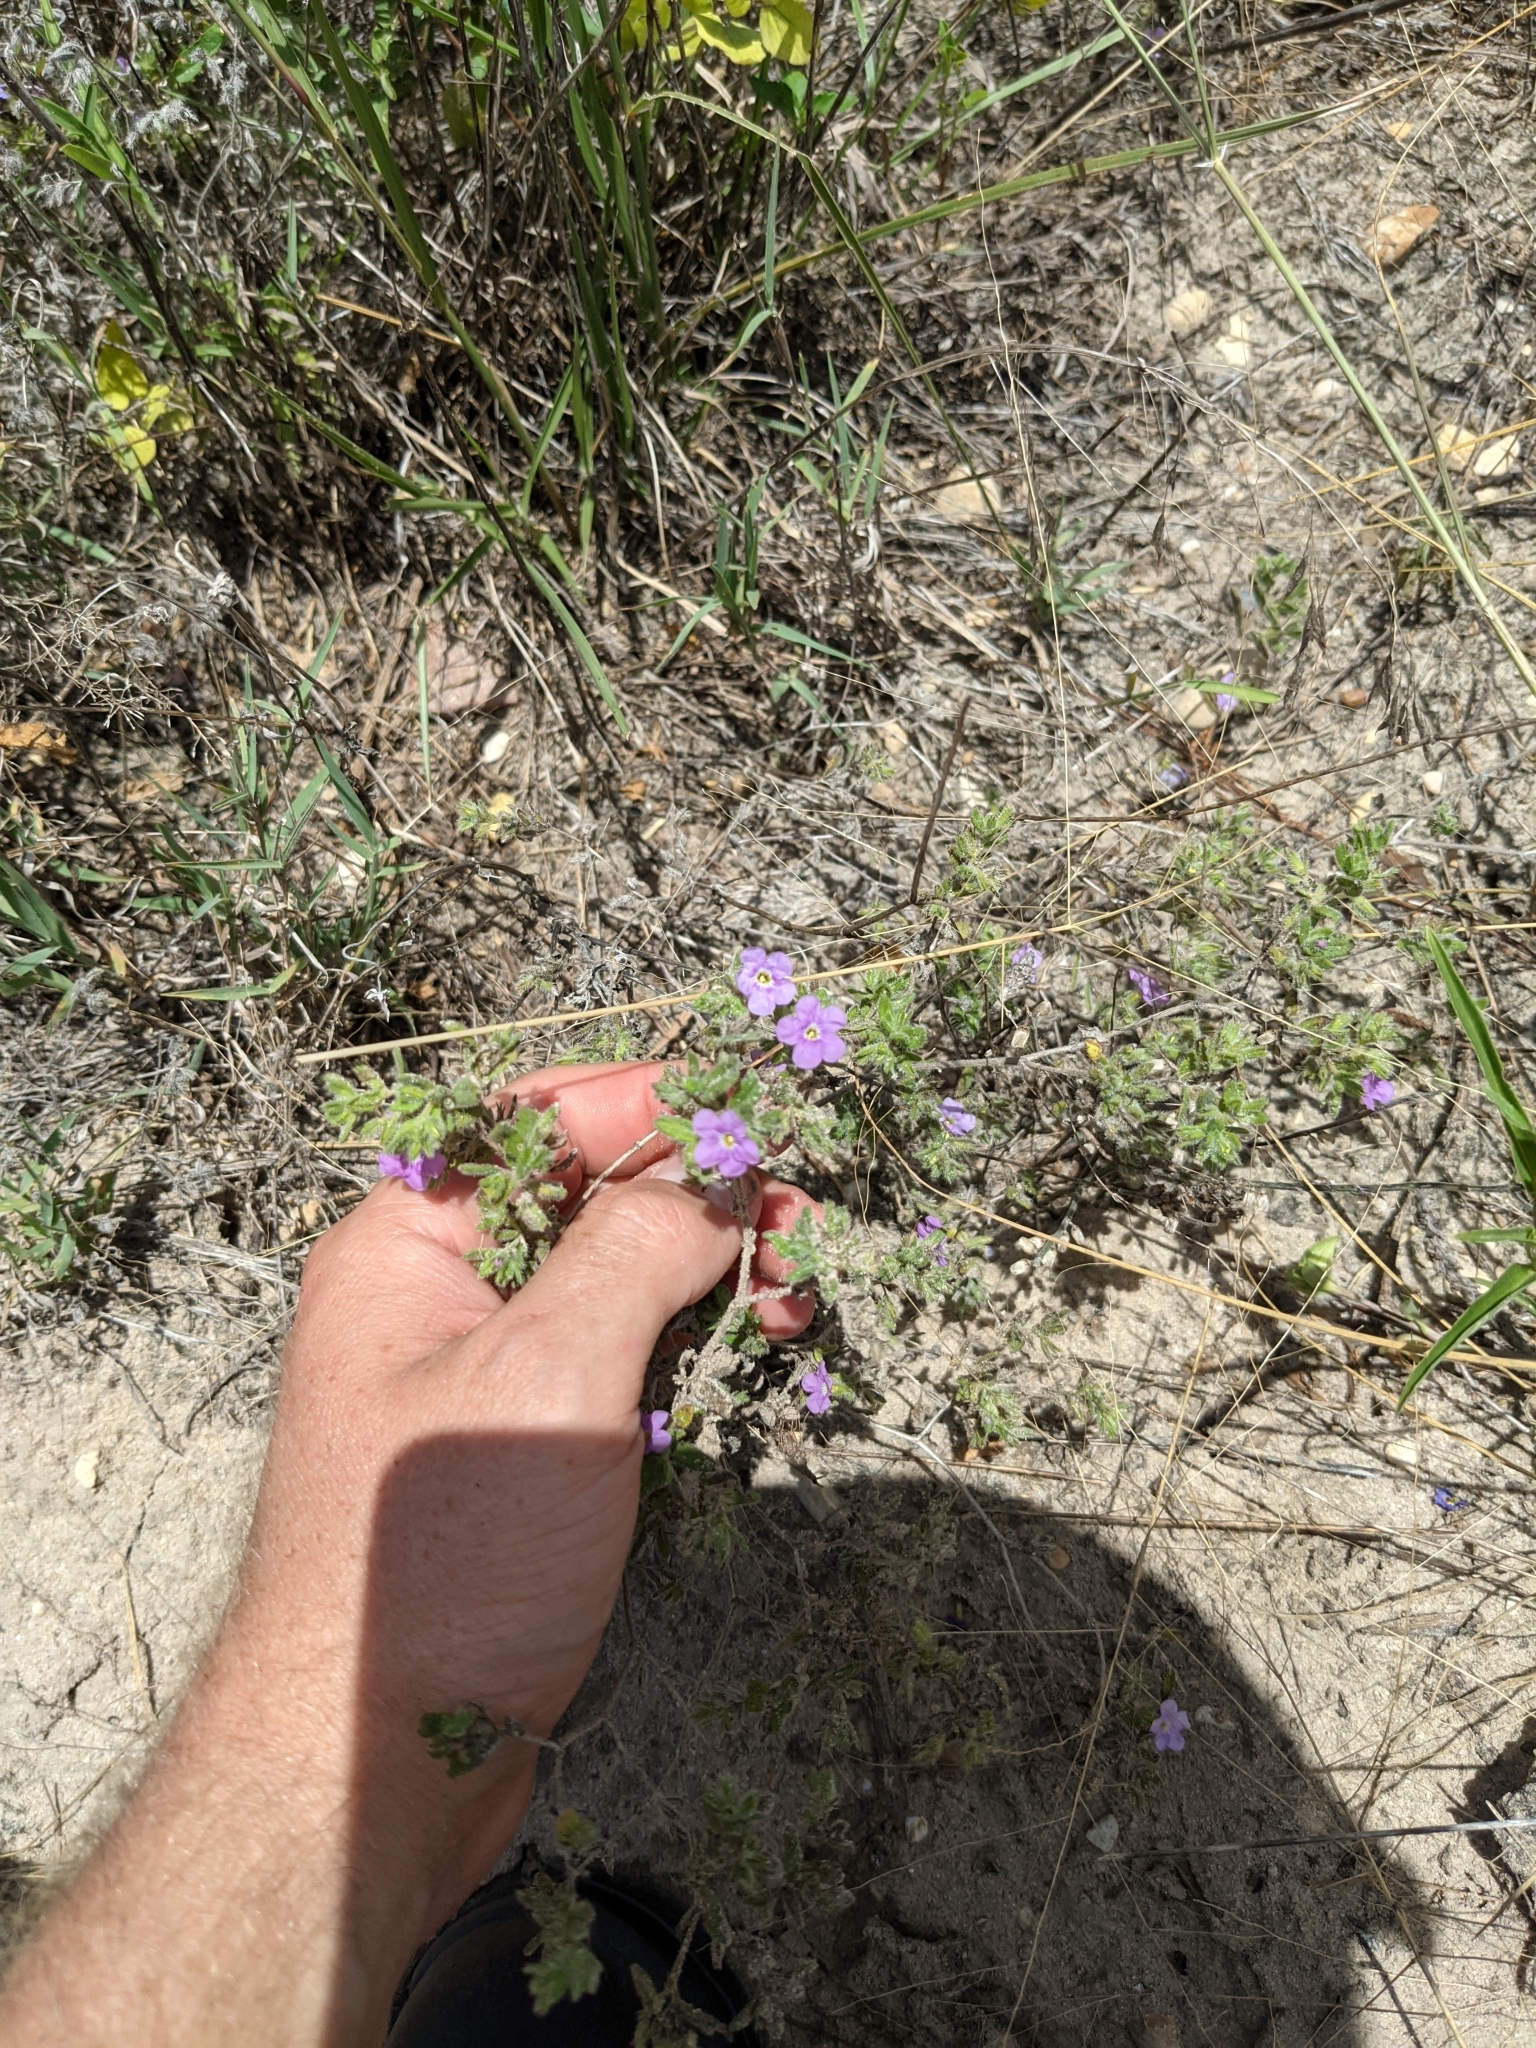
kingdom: Plantae
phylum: Tracheophyta
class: Magnoliopsida
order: Boraginales
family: Namaceae
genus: Nama
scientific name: Nama hispida
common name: Bristly nama
